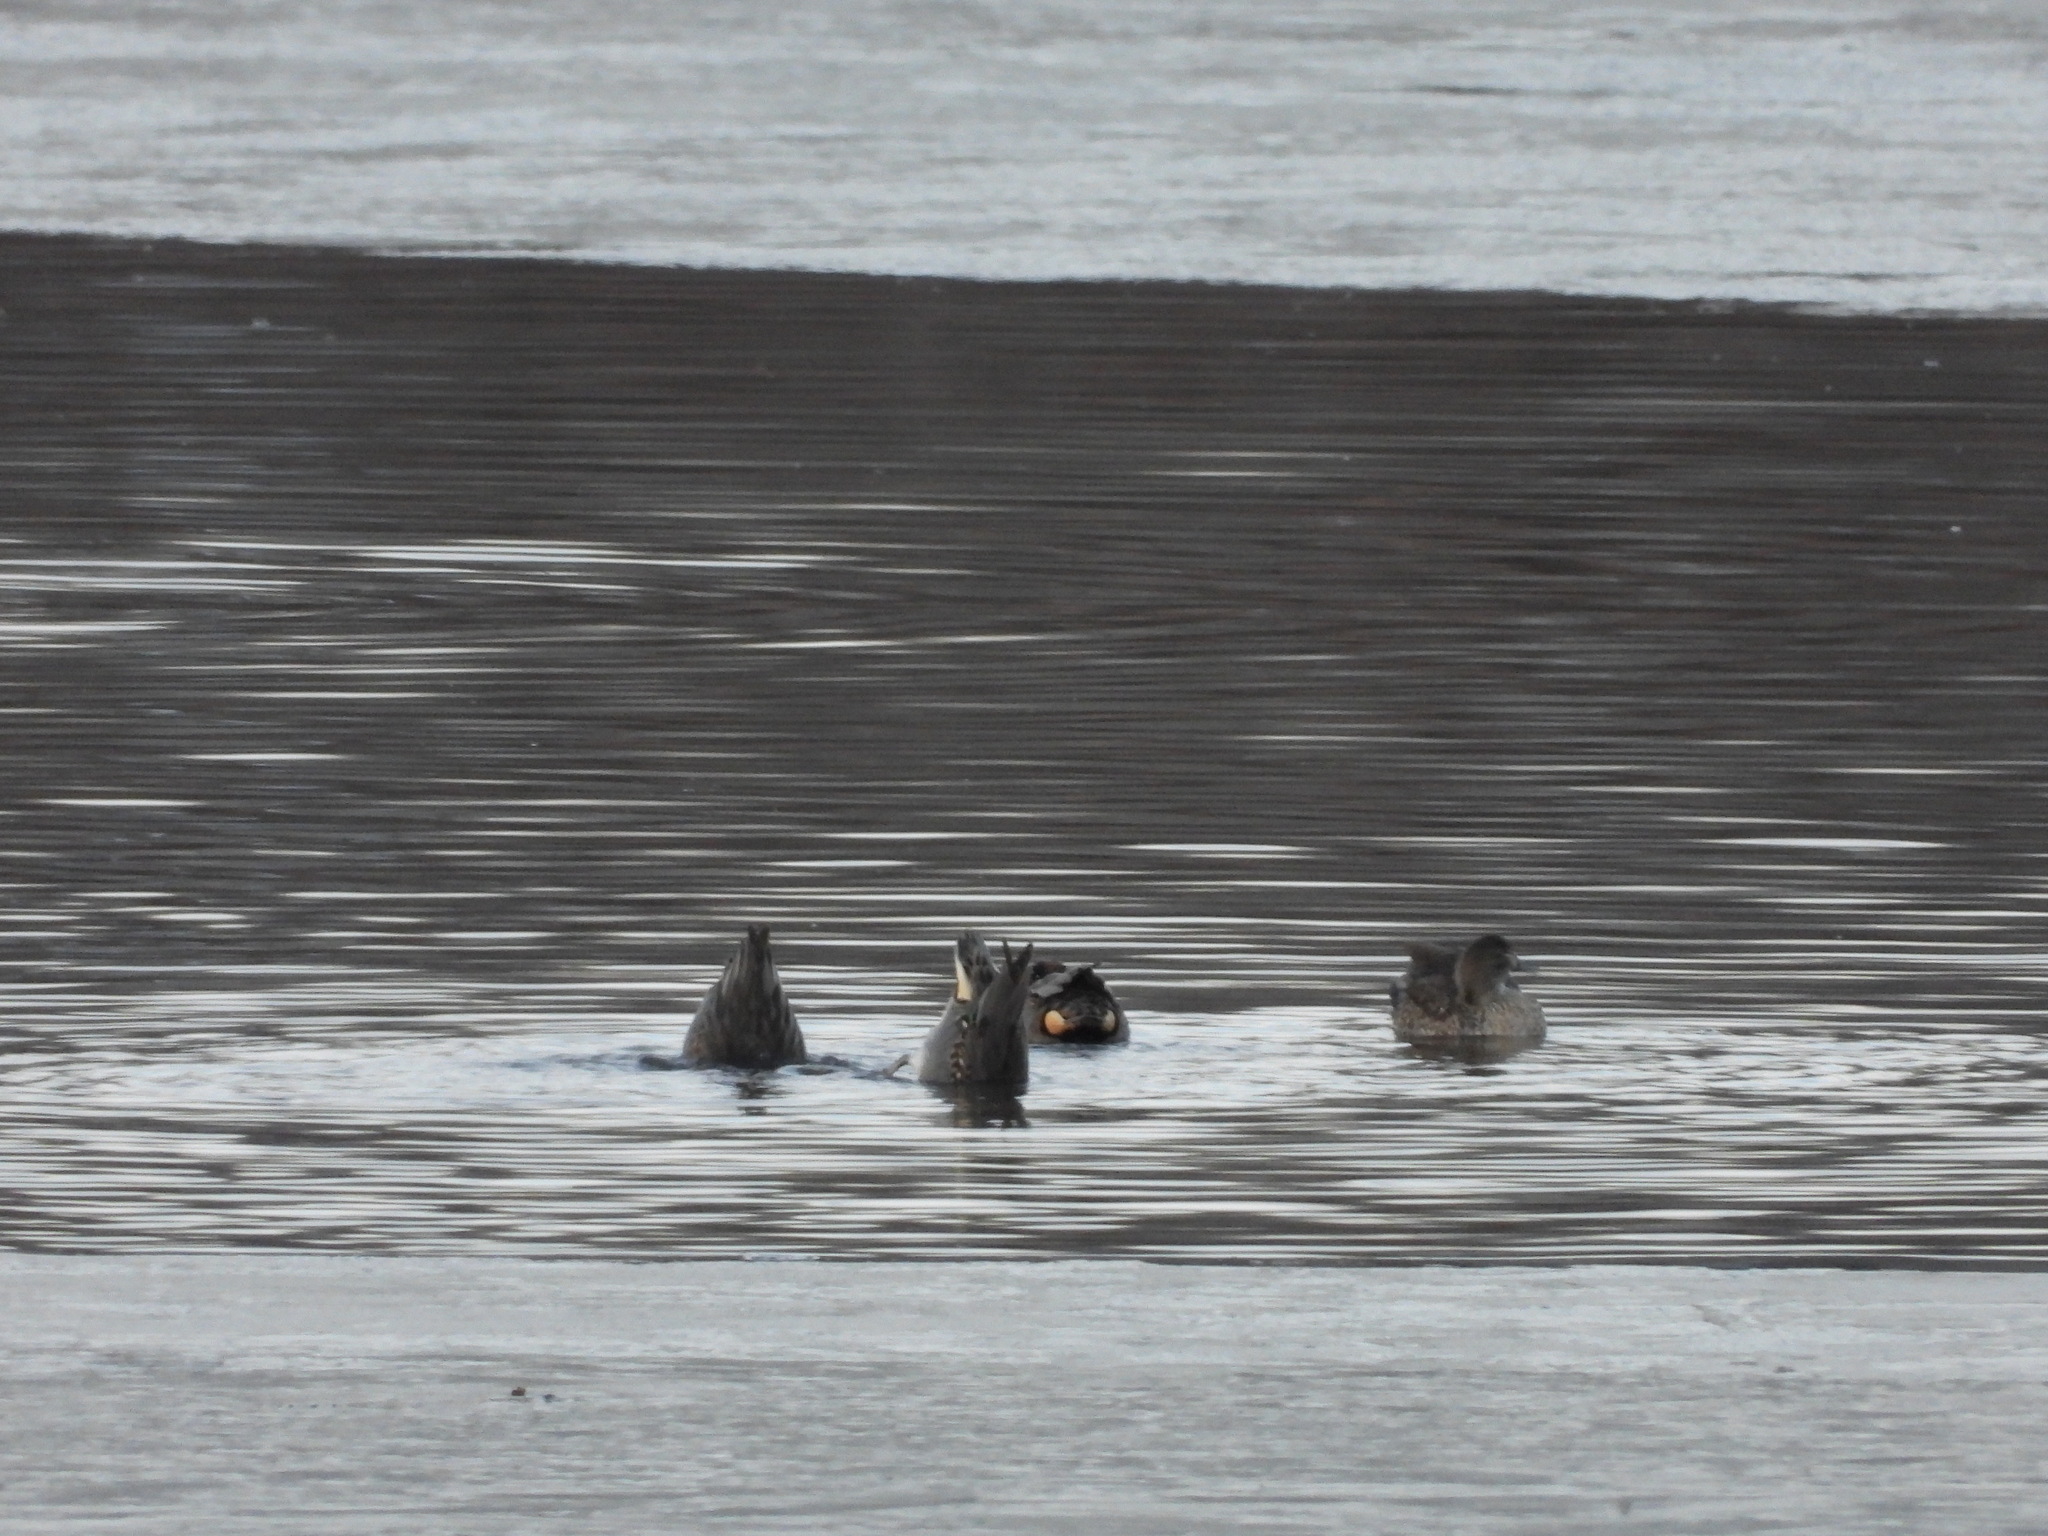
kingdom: Animalia
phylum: Chordata
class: Aves
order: Anseriformes
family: Anatidae
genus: Anas
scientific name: Anas crecca
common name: Eurasian teal
